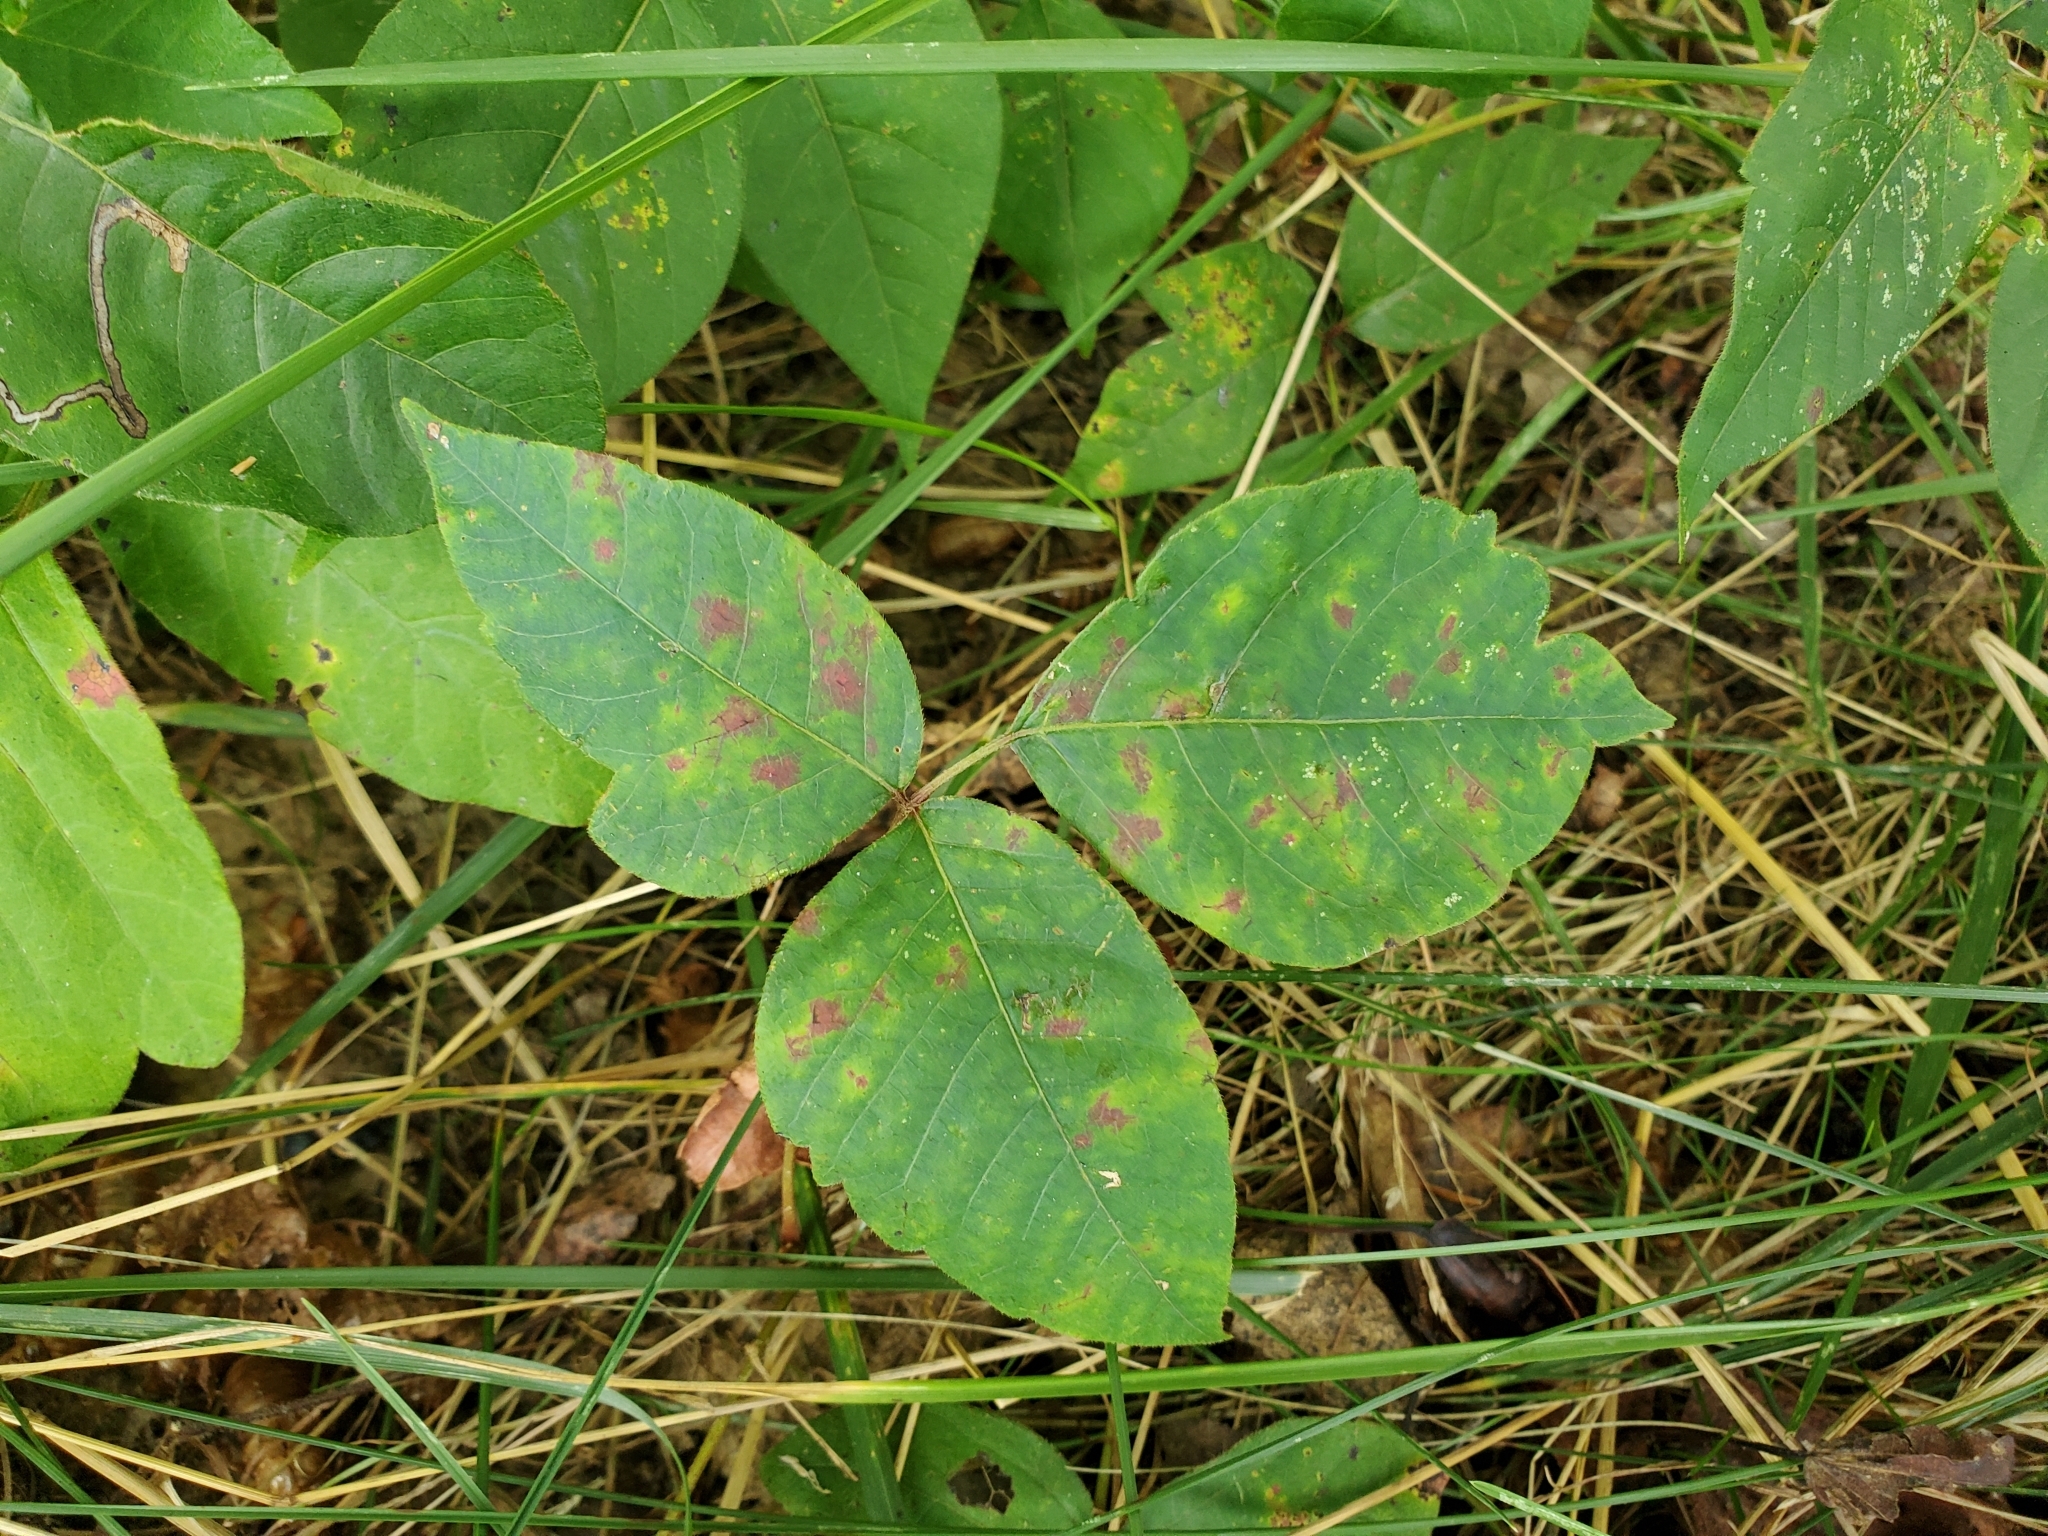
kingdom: Plantae
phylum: Tracheophyta
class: Magnoliopsida
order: Sapindales
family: Anacardiaceae
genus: Toxicodendron
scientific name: Toxicodendron radicans
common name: Poison ivy
